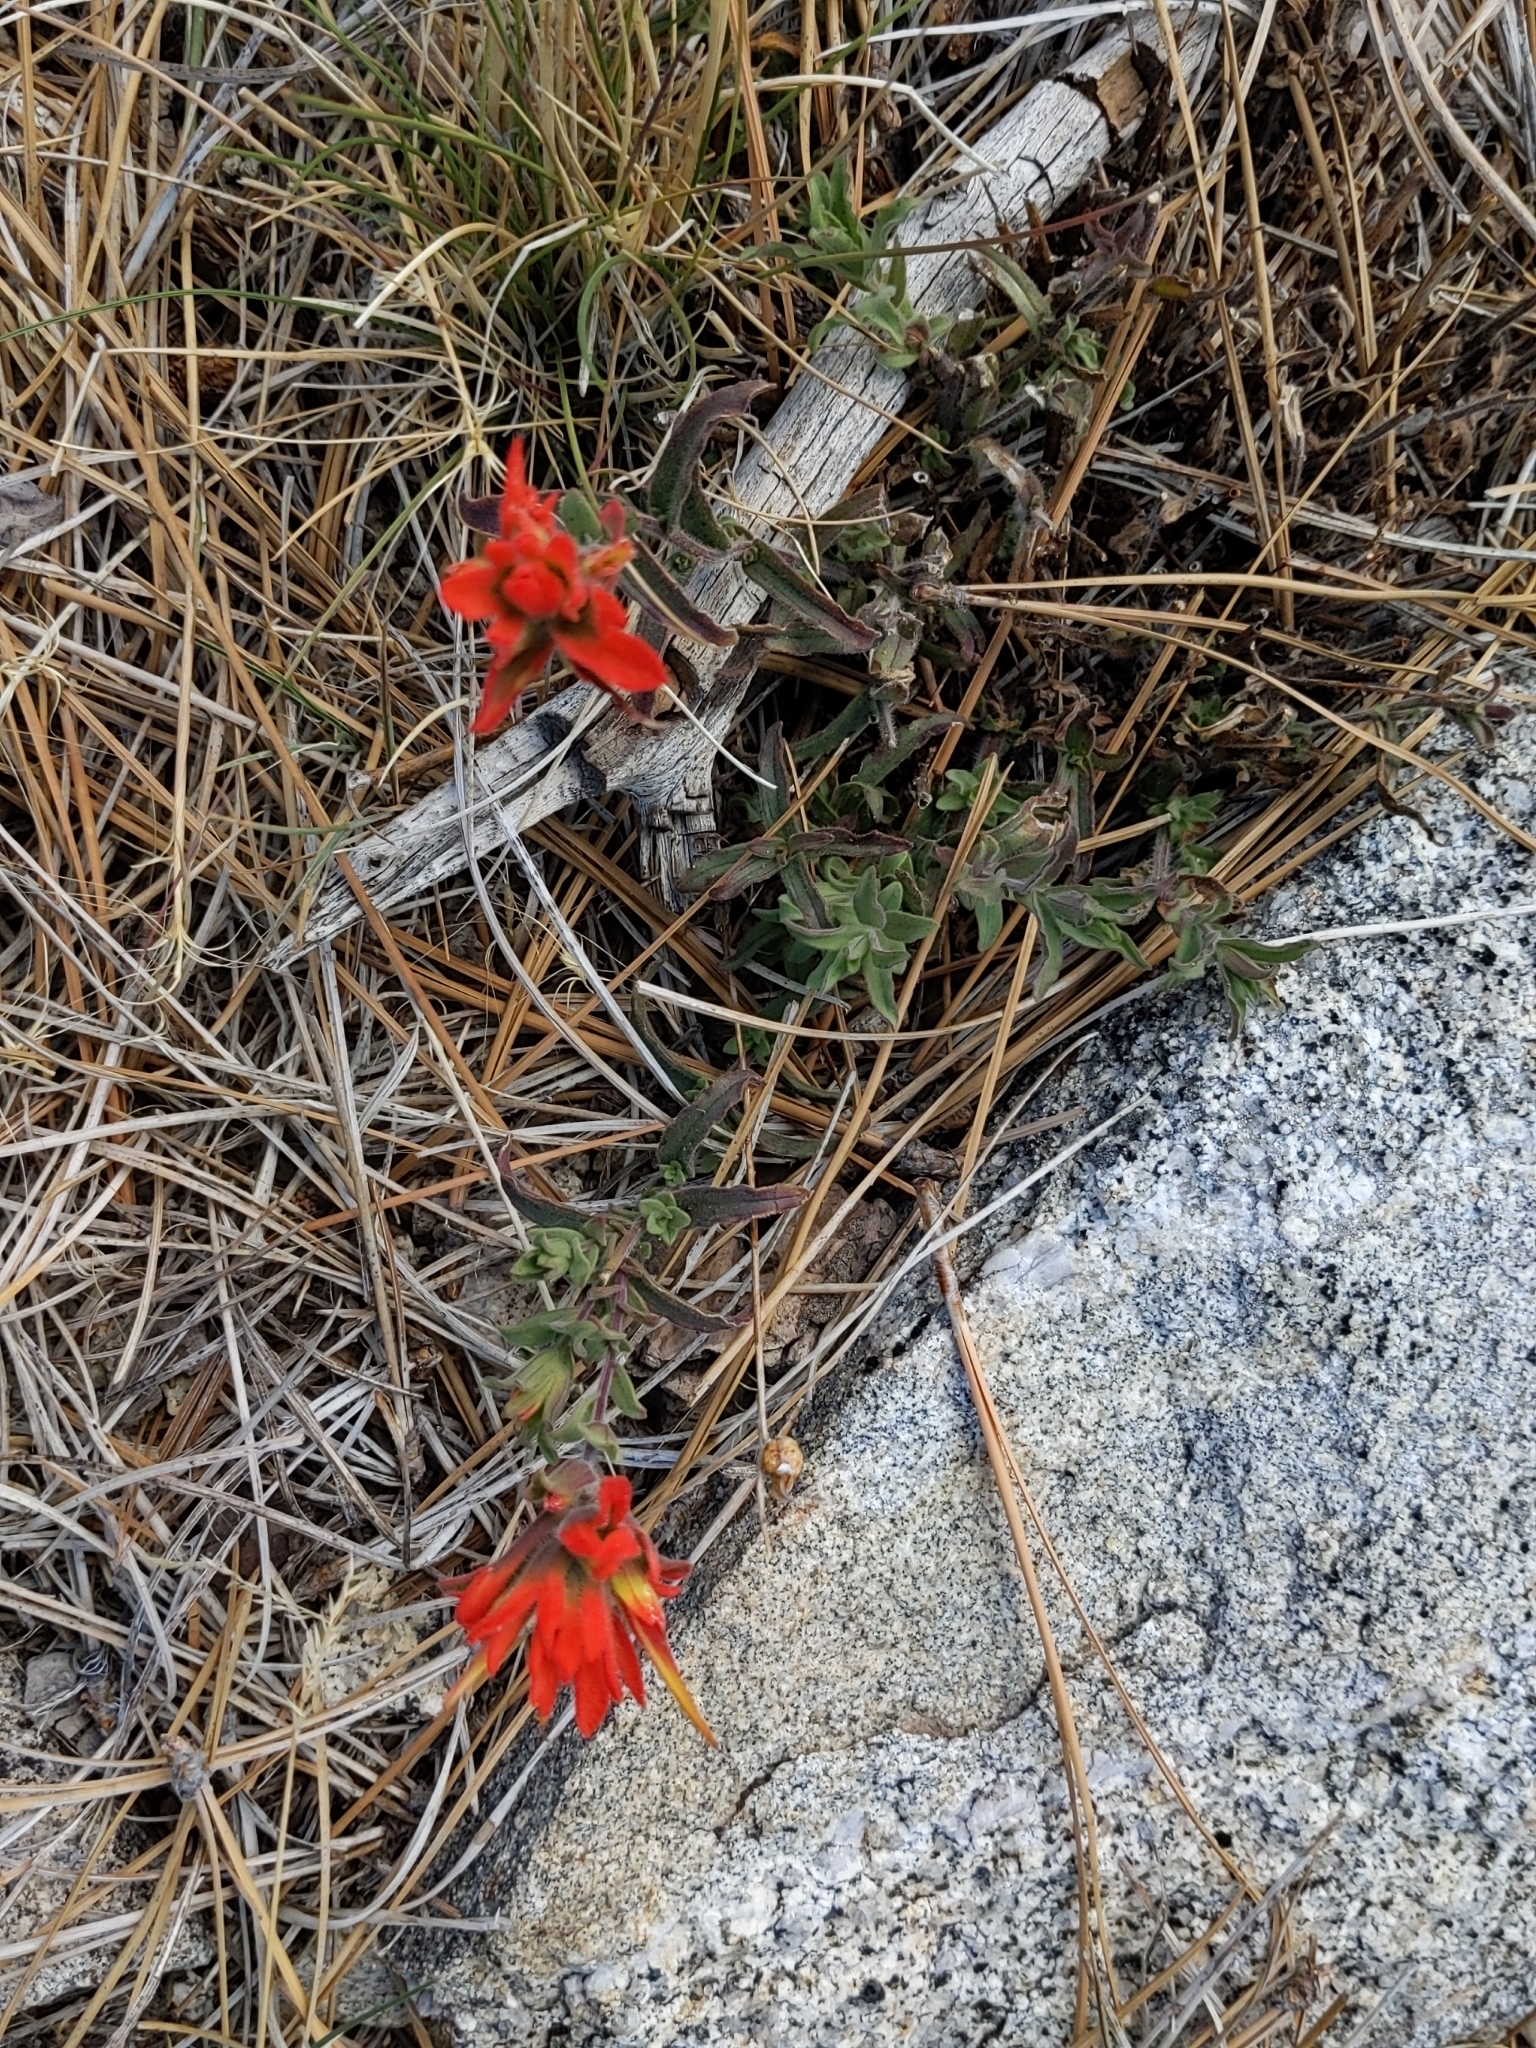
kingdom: Plantae
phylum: Tracheophyta
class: Magnoliopsida
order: Lamiales
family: Orobanchaceae
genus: Castilleja
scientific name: Castilleja martini
